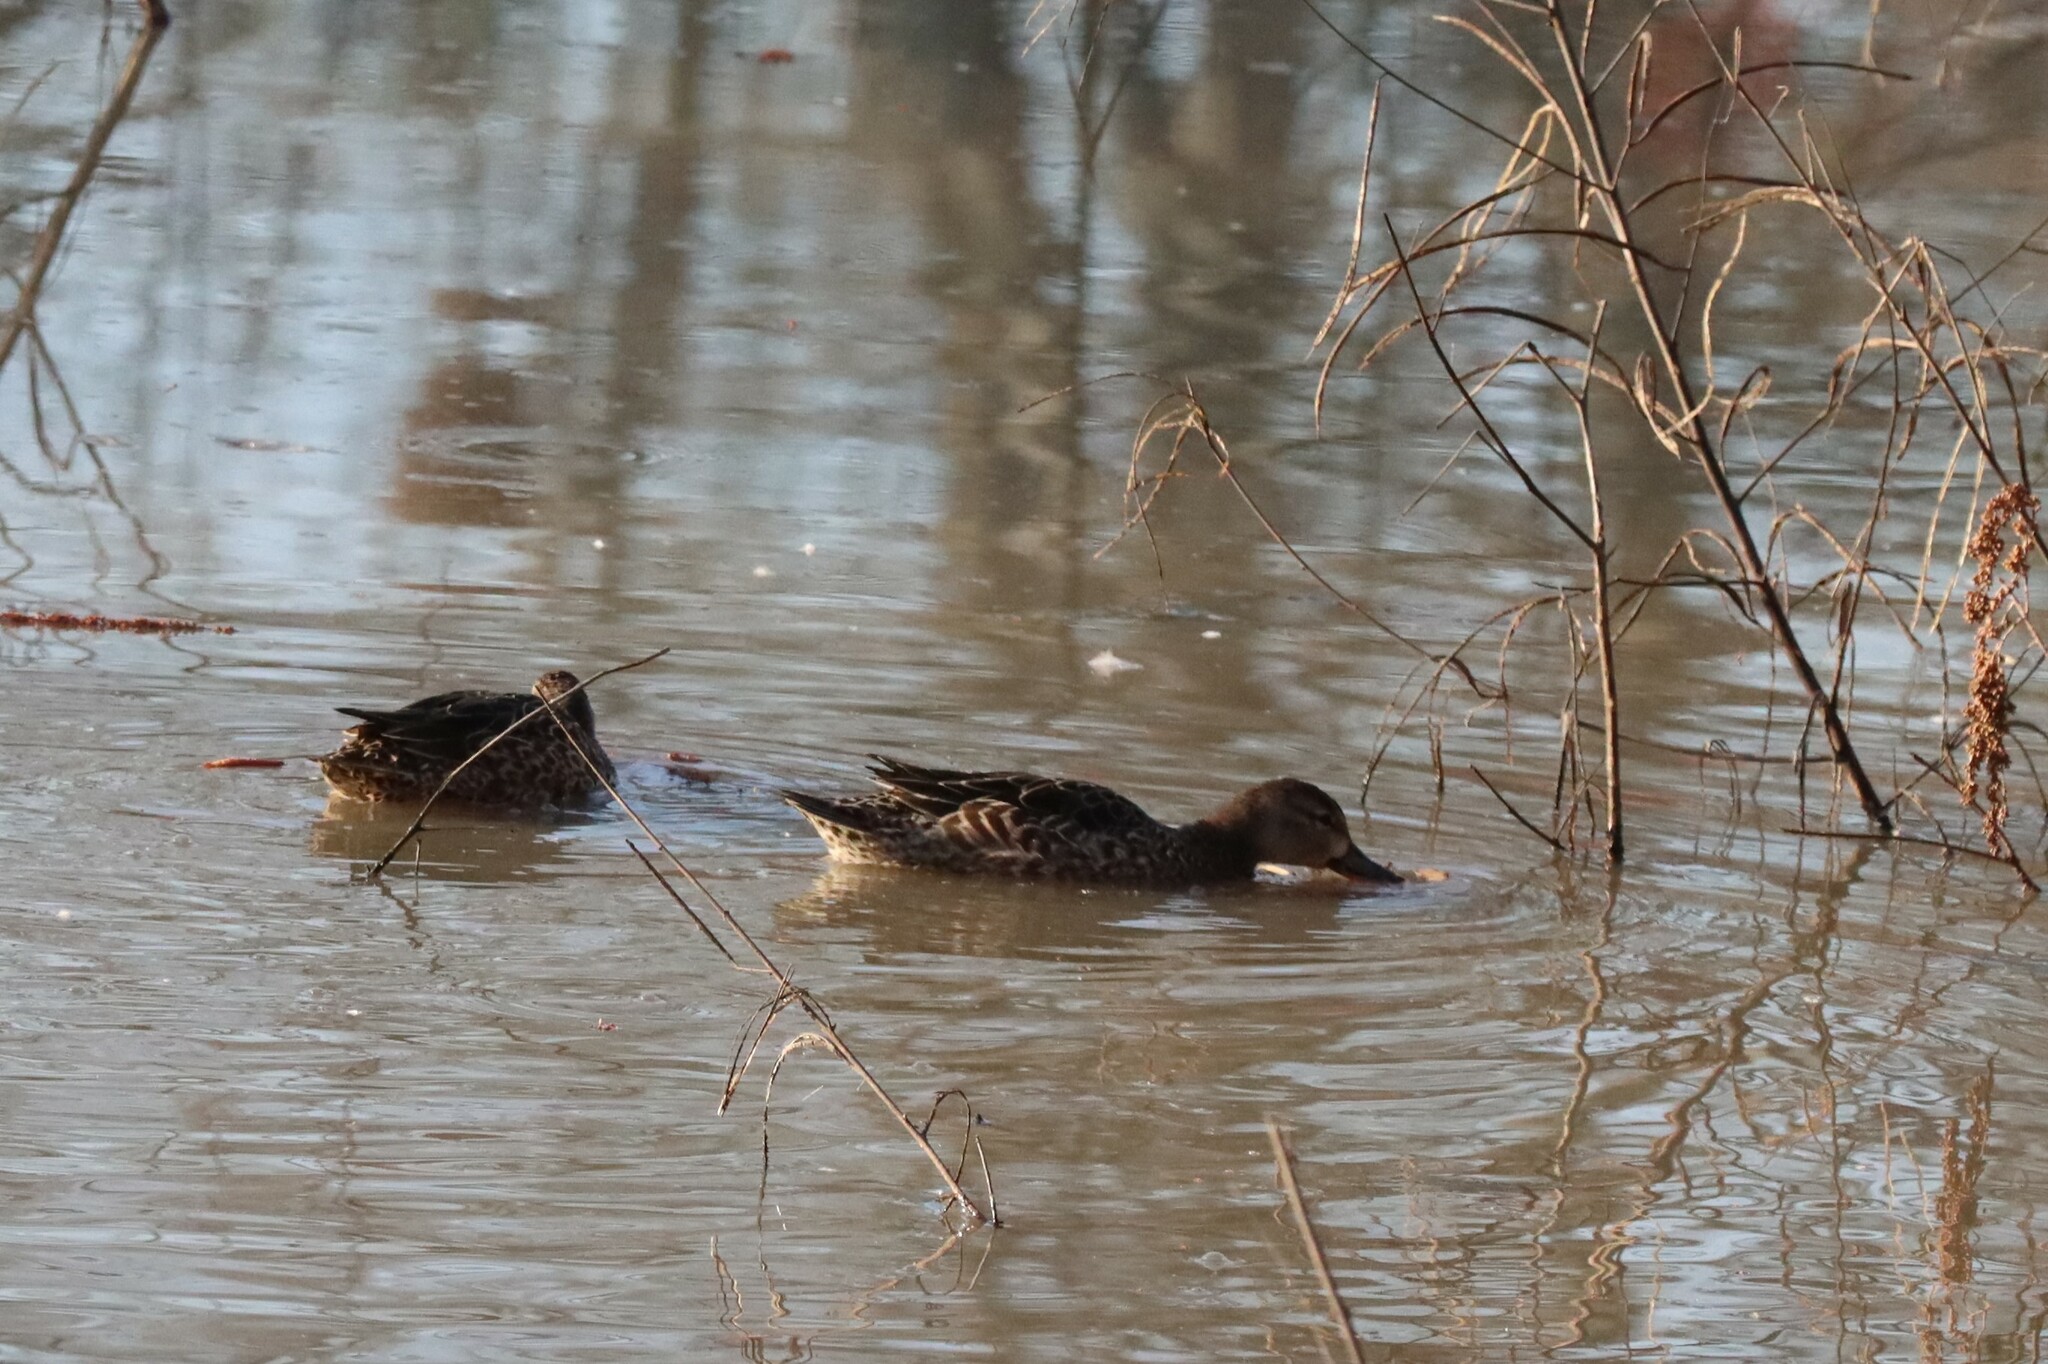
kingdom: Animalia
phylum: Chordata
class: Aves
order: Anseriformes
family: Anatidae
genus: Spatula
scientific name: Spatula discors
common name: Blue-winged teal
